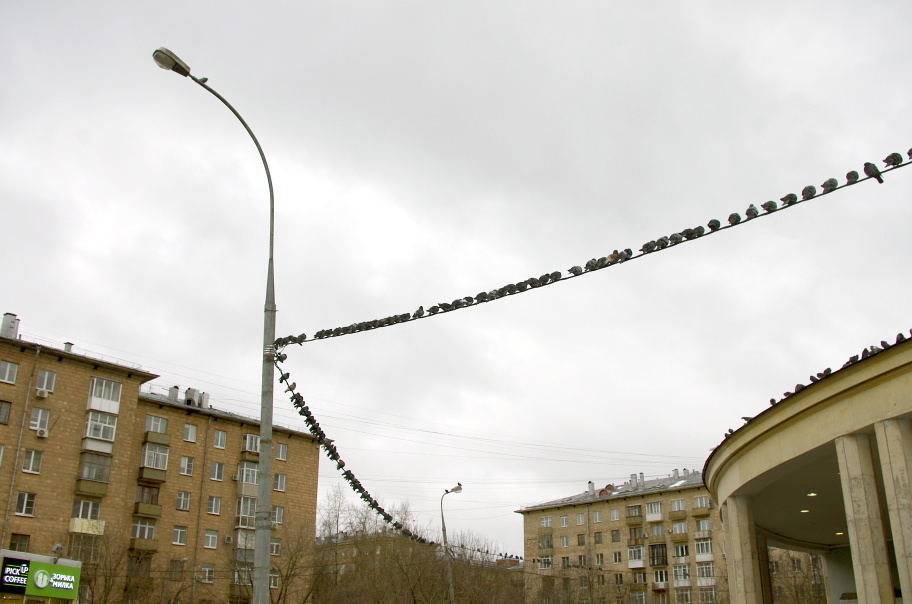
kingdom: Animalia
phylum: Chordata
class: Aves
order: Columbiformes
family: Columbidae
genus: Columba
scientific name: Columba livia
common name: Rock pigeon
